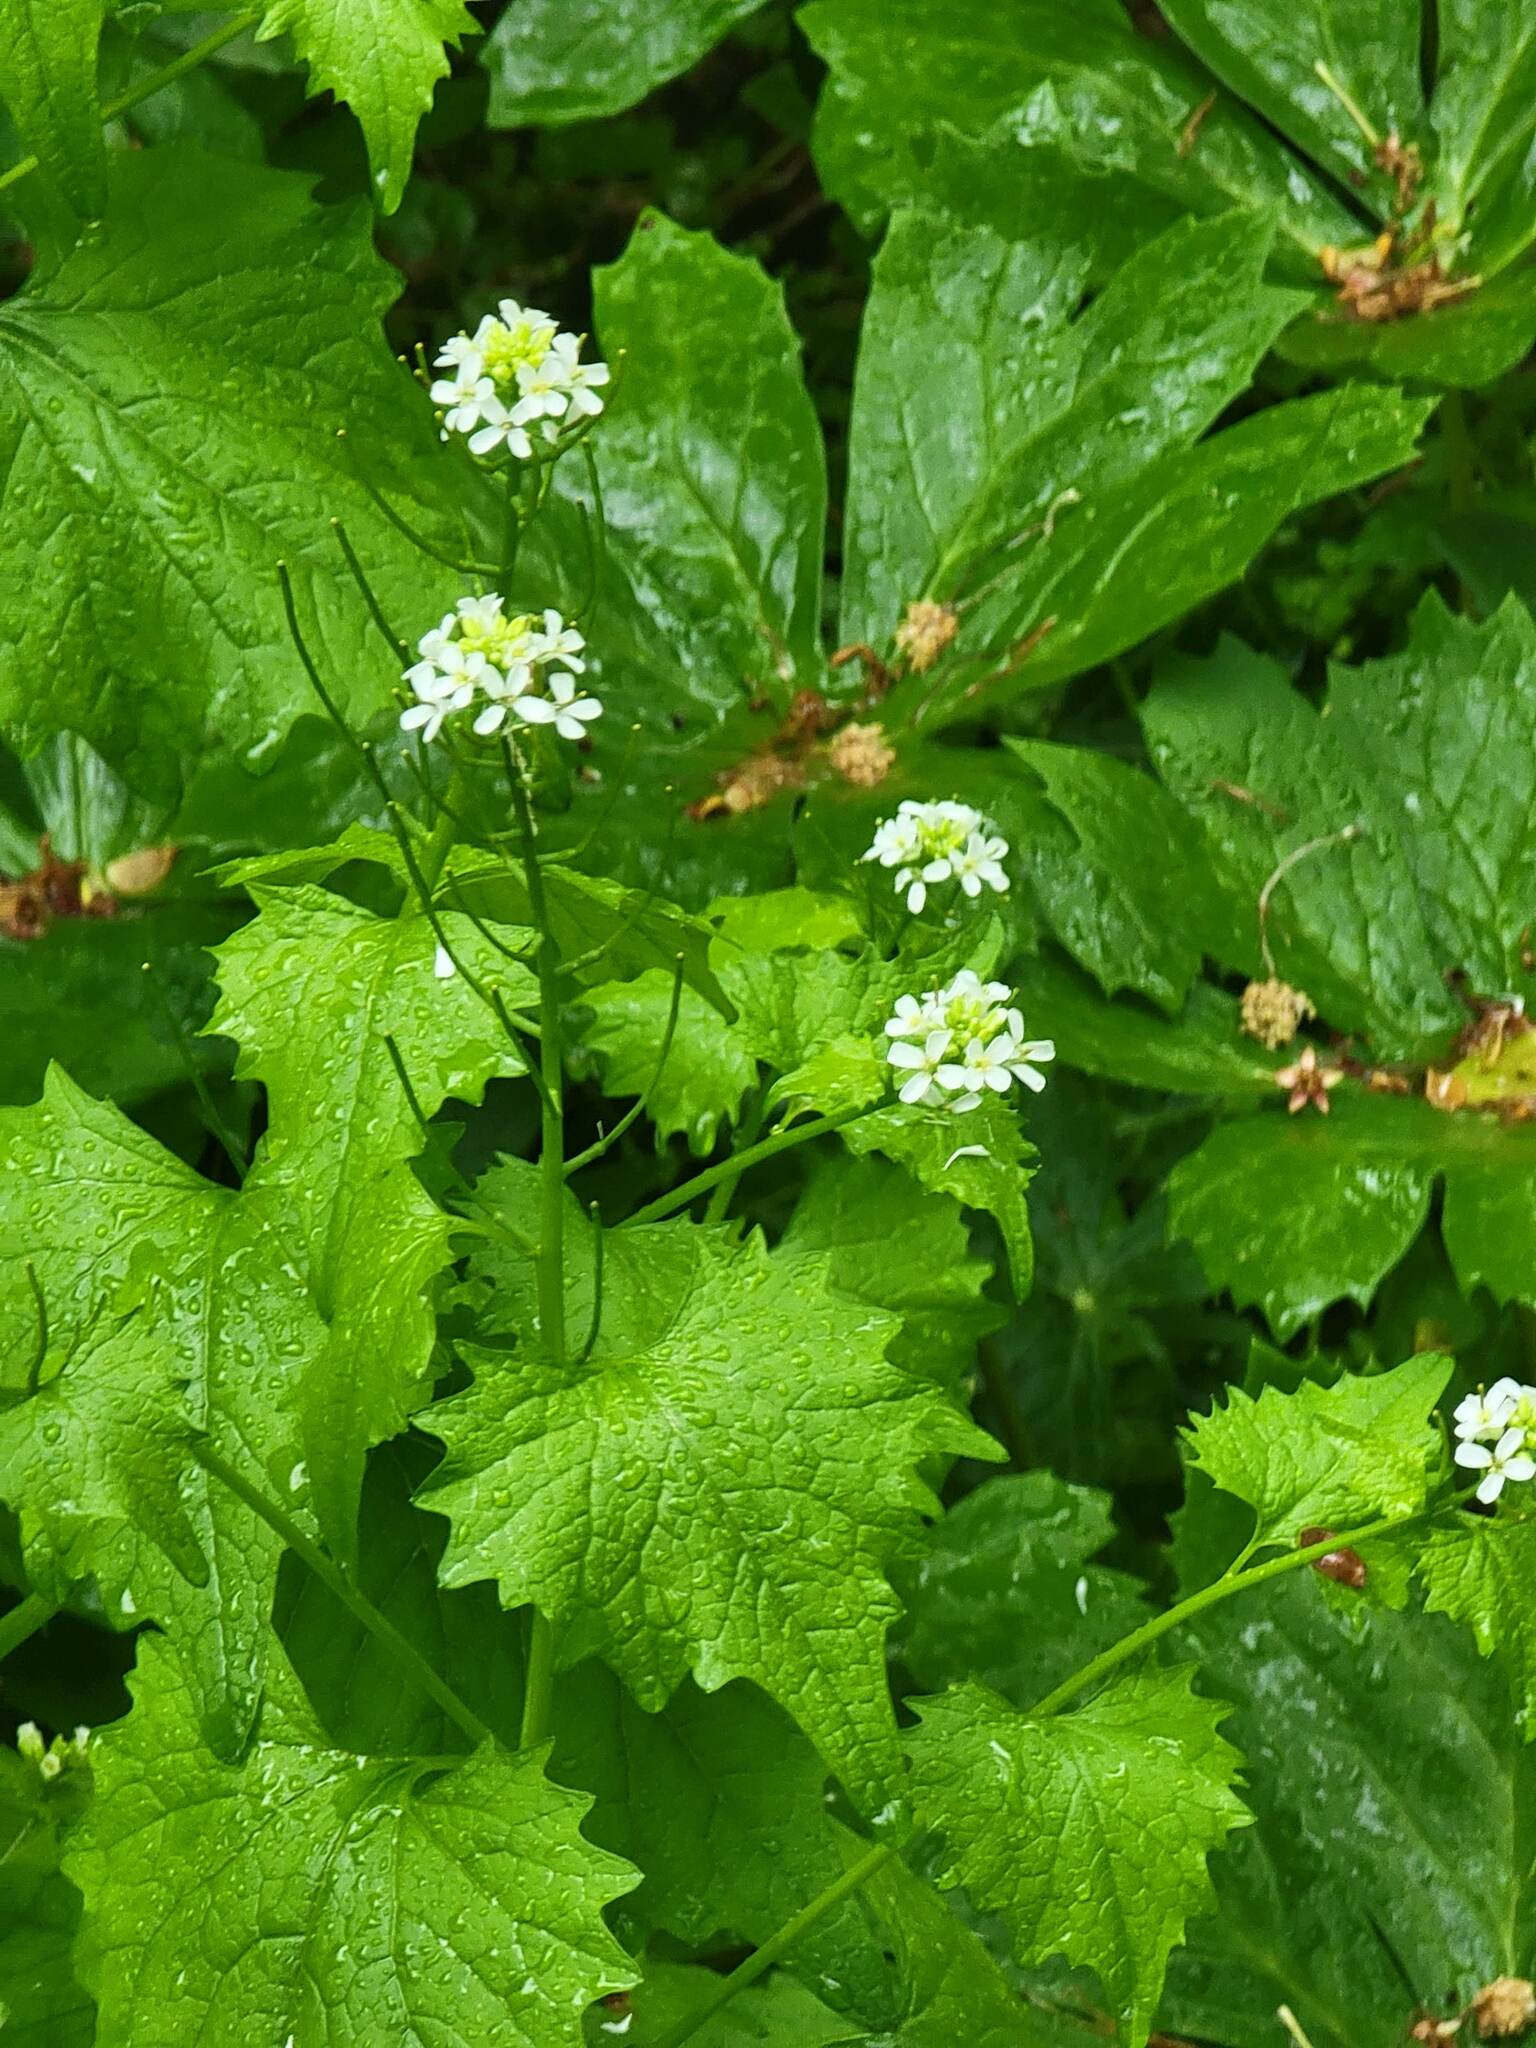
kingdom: Plantae
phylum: Tracheophyta
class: Magnoliopsida
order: Brassicales
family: Brassicaceae
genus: Alliaria
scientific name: Alliaria petiolata
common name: Garlic mustard
